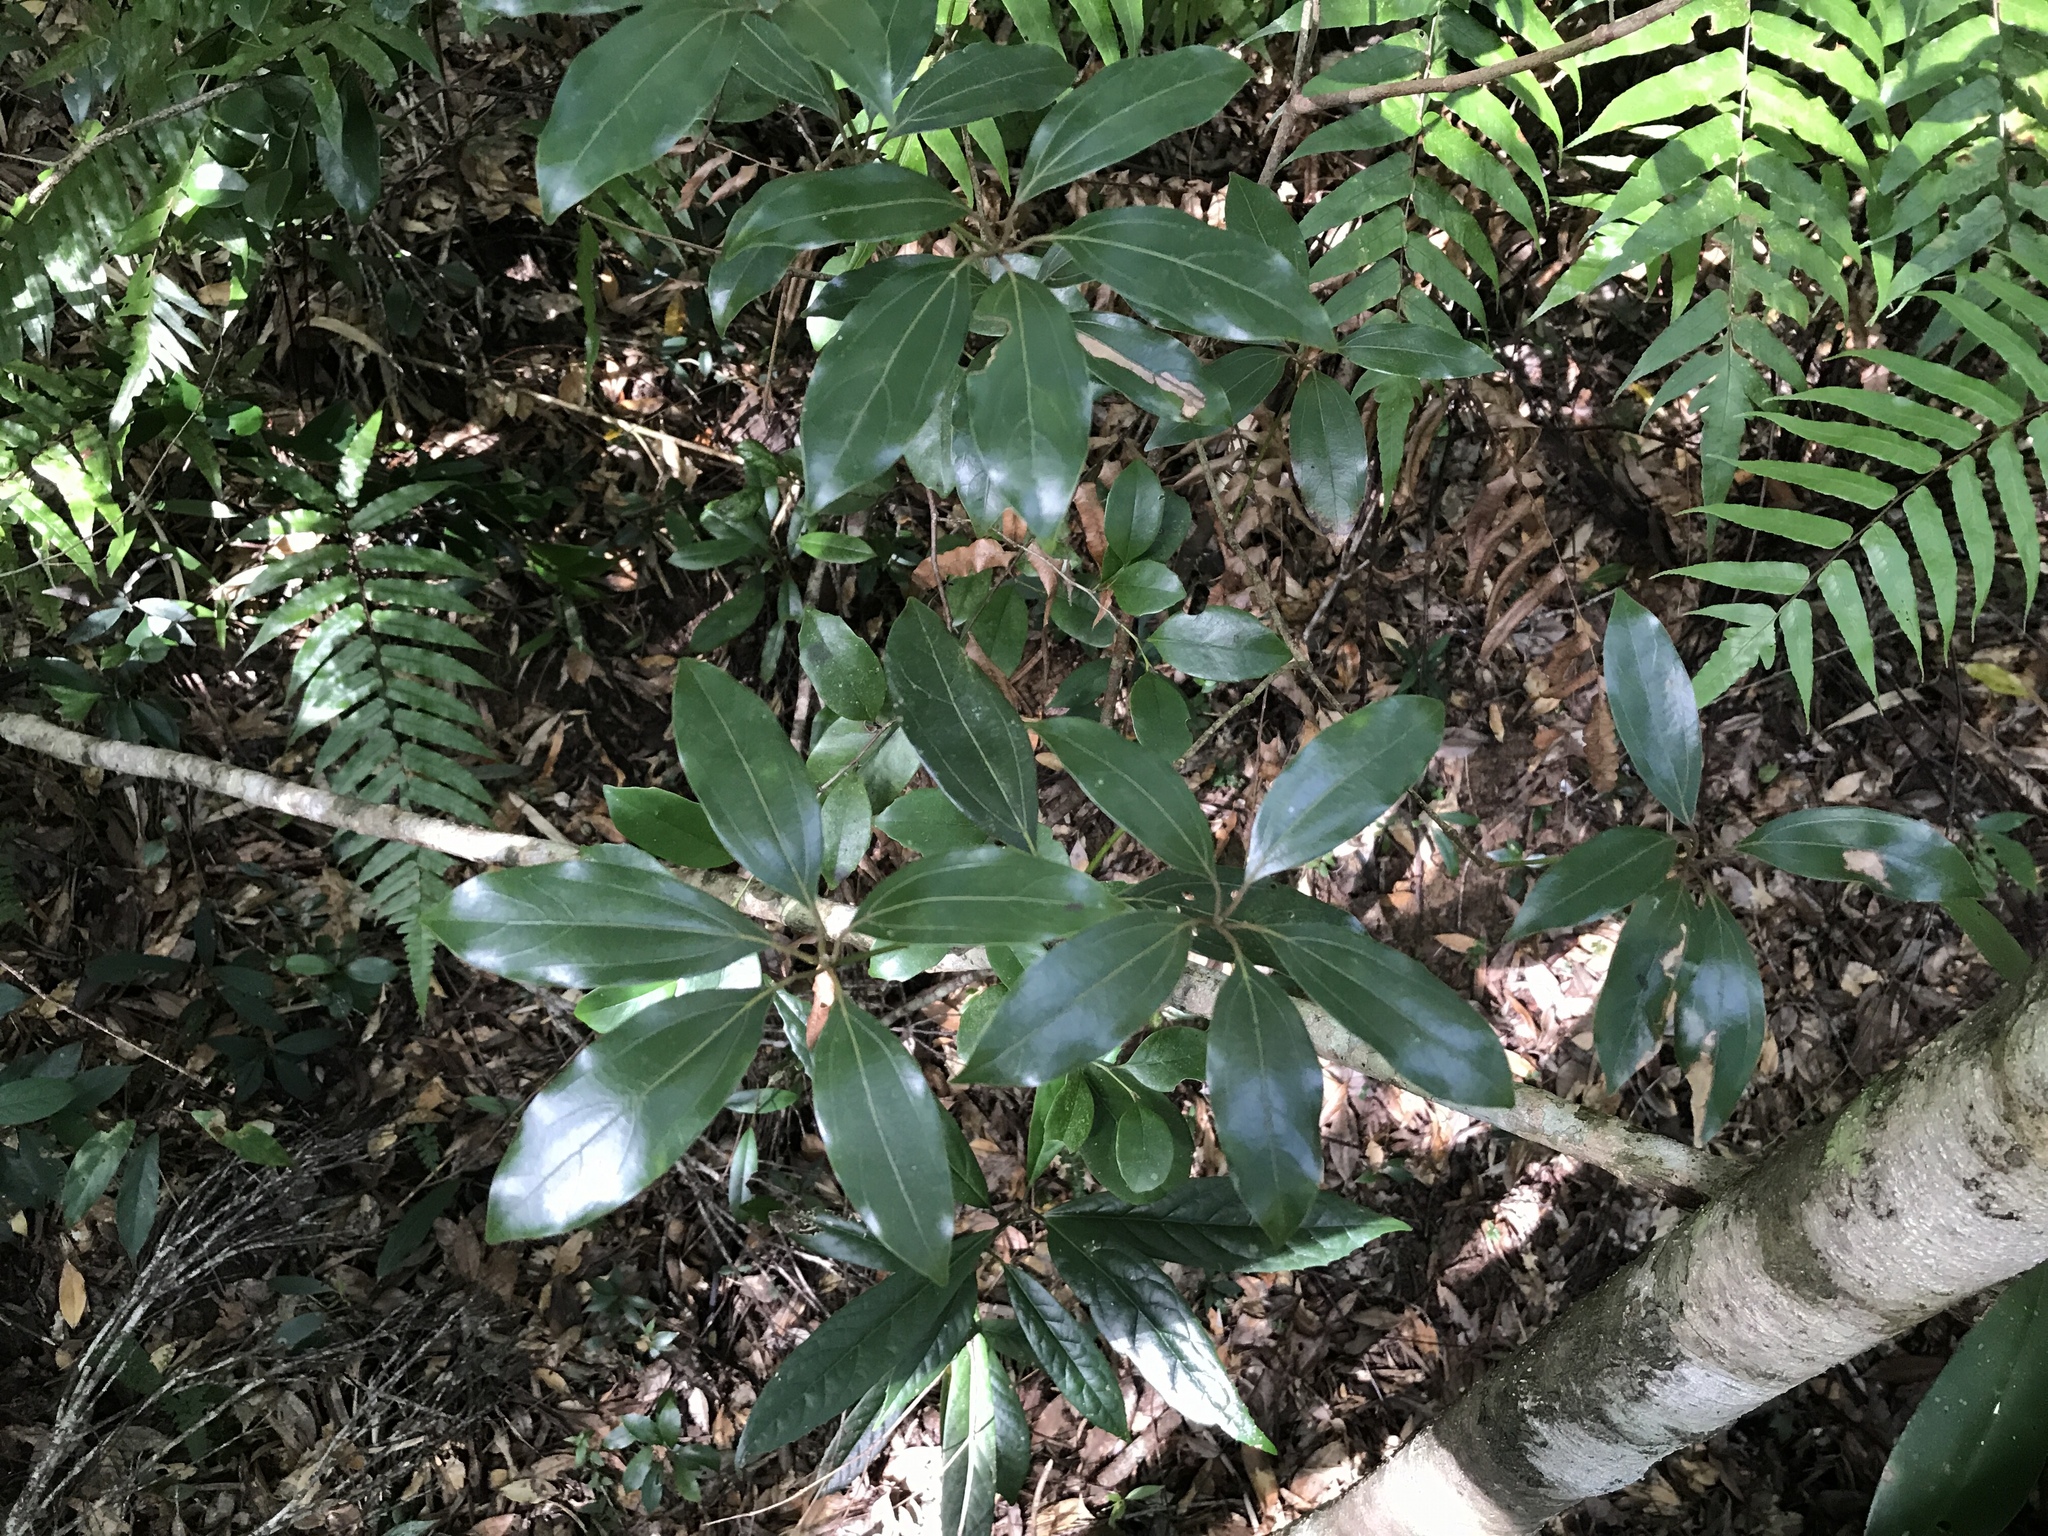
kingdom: Plantae
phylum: Tracheophyta
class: Magnoliopsida
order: Laurales
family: Lauraceae
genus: Neolitsea
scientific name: Neolitsea aciculata
